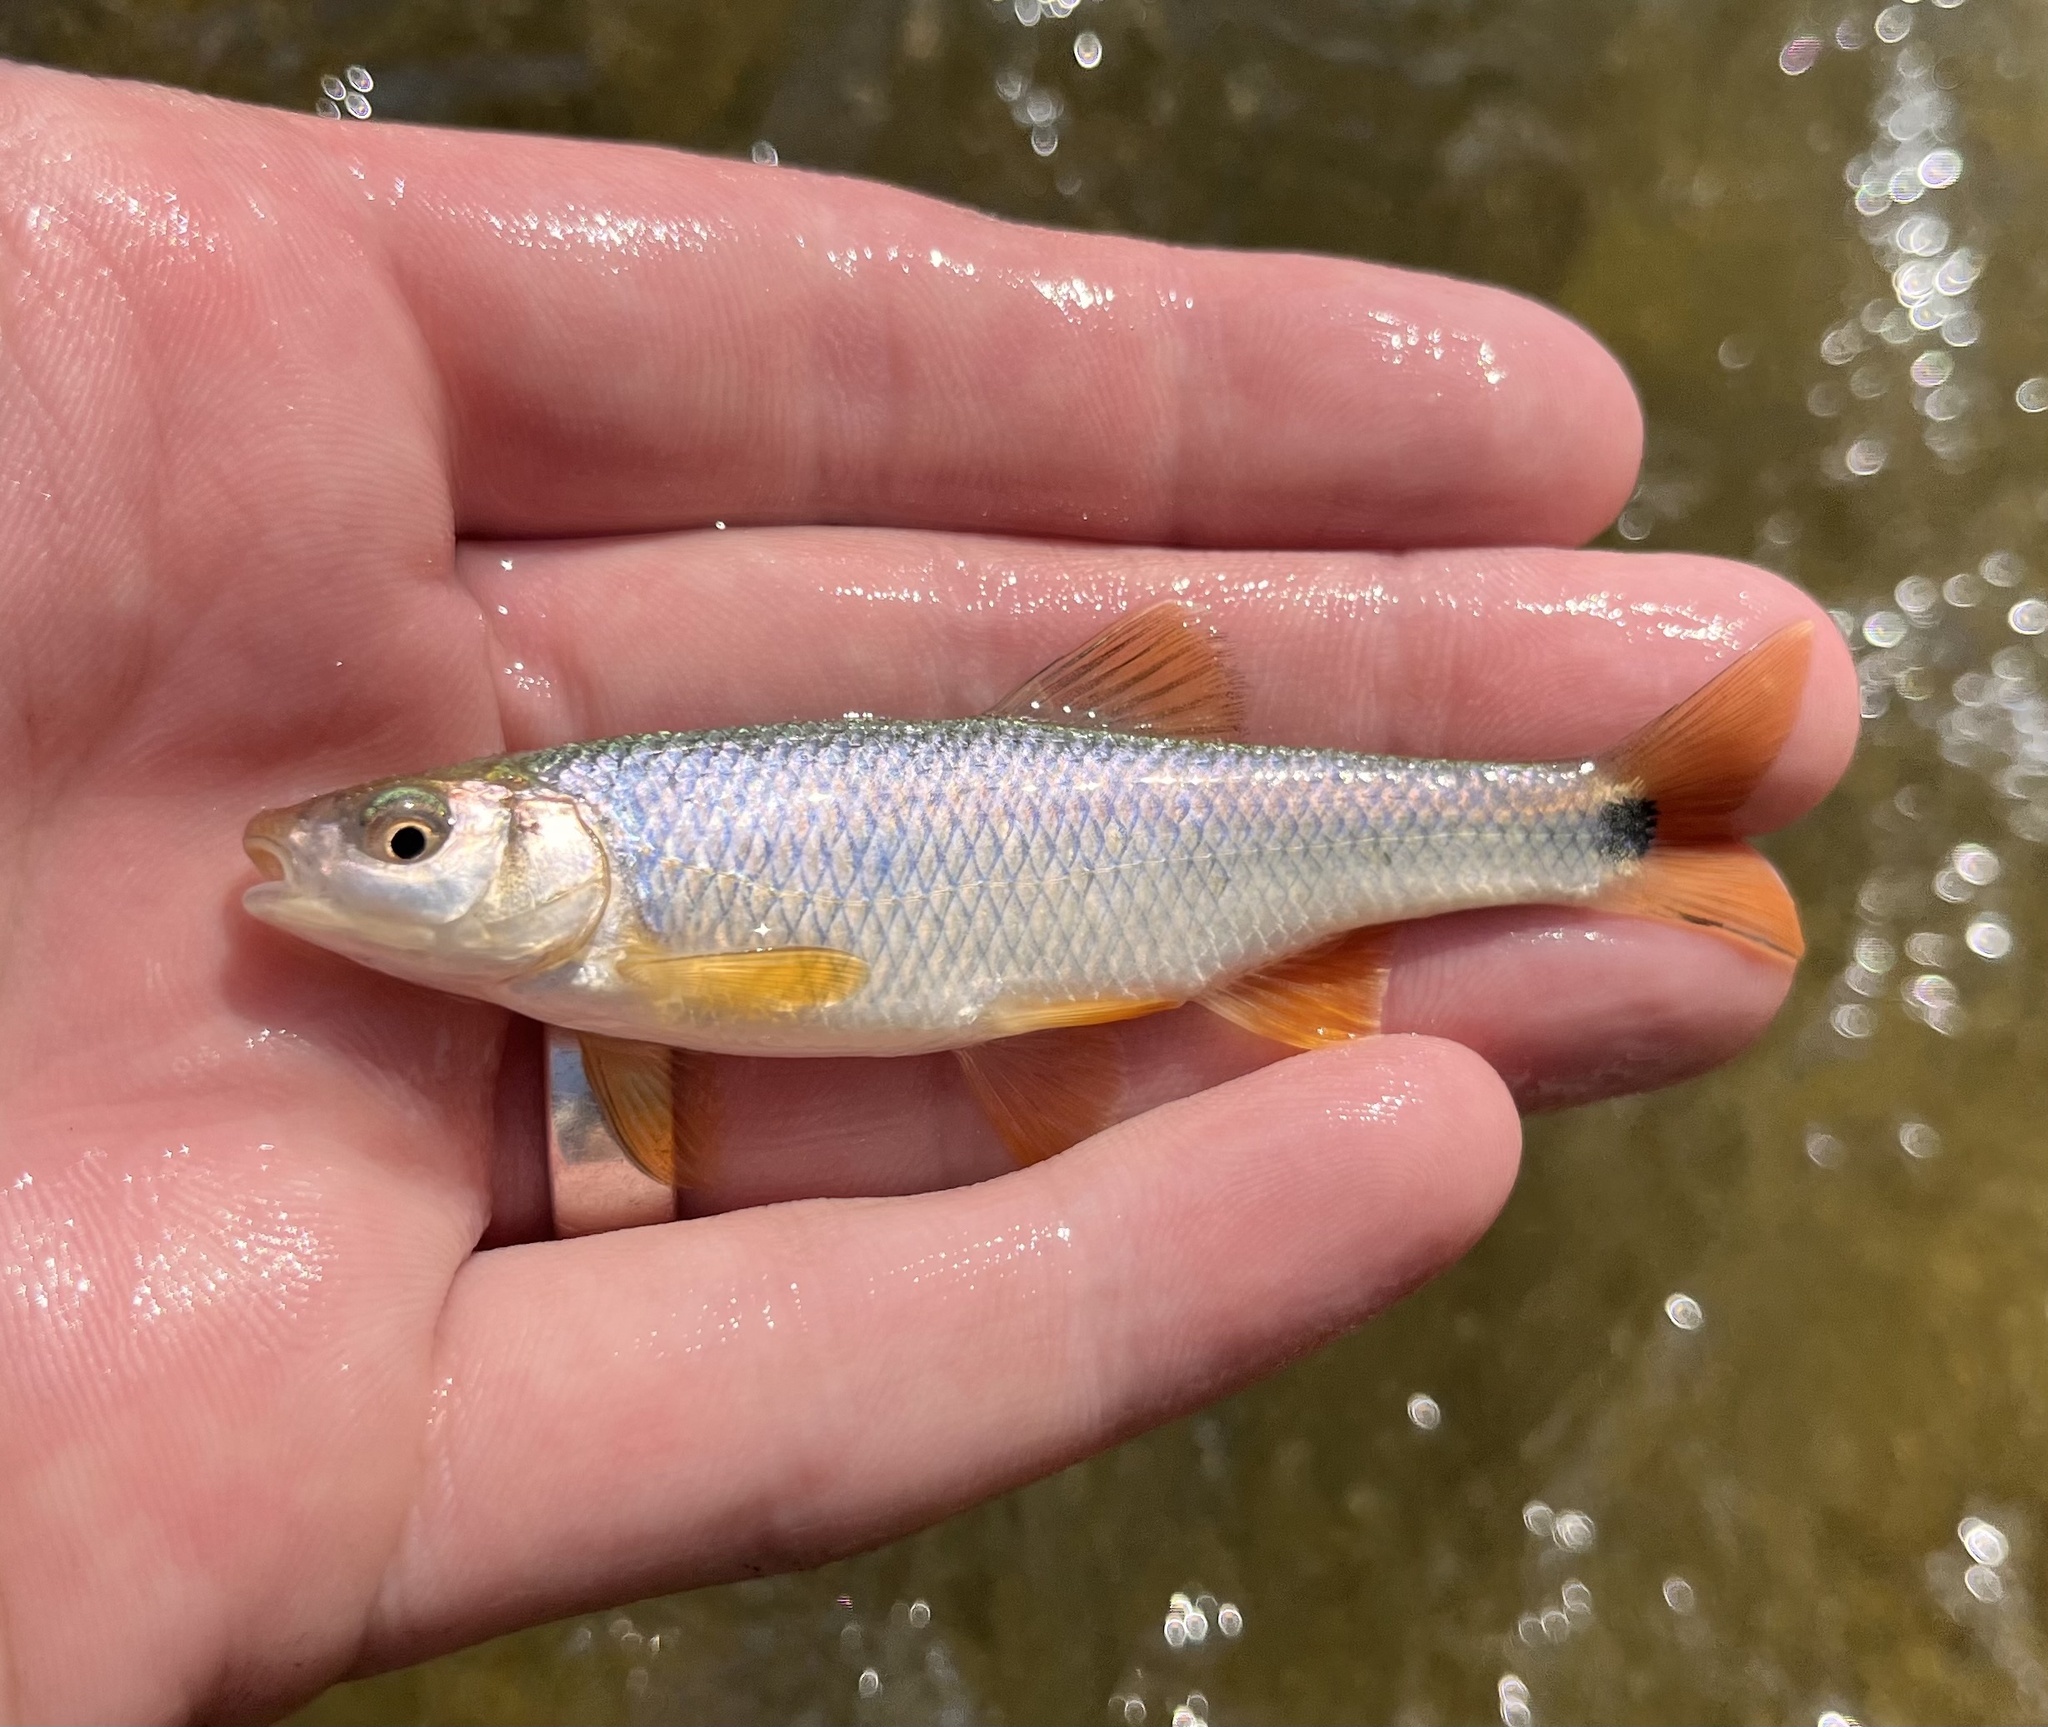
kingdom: Animalia
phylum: Chordata
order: Cypriniformes
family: Cyprinidae
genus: Cyprinella
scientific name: Cyprinella venusta
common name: Blacktail shiner
